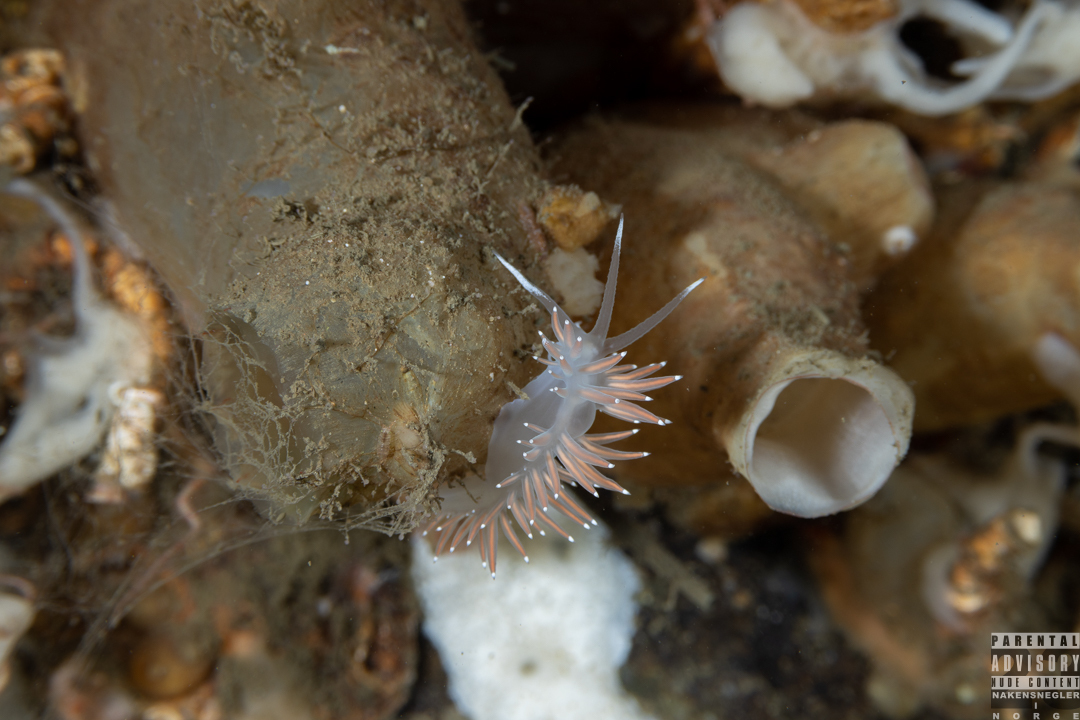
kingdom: Animalia
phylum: Mollusca
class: Gastropoda
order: Nudibranchia
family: Coryphellidae
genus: Coryphella
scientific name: Coryphella browni
